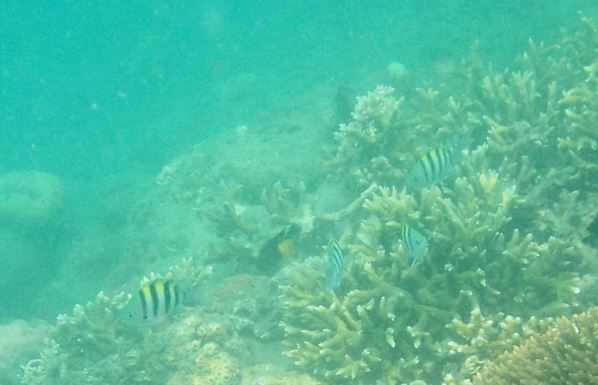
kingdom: Animalia
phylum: Chordata
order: Perciformes
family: Pomacentridae
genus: Abudefduf
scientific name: Abudefduf vaigiensis
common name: Indo-pacific sergeant
